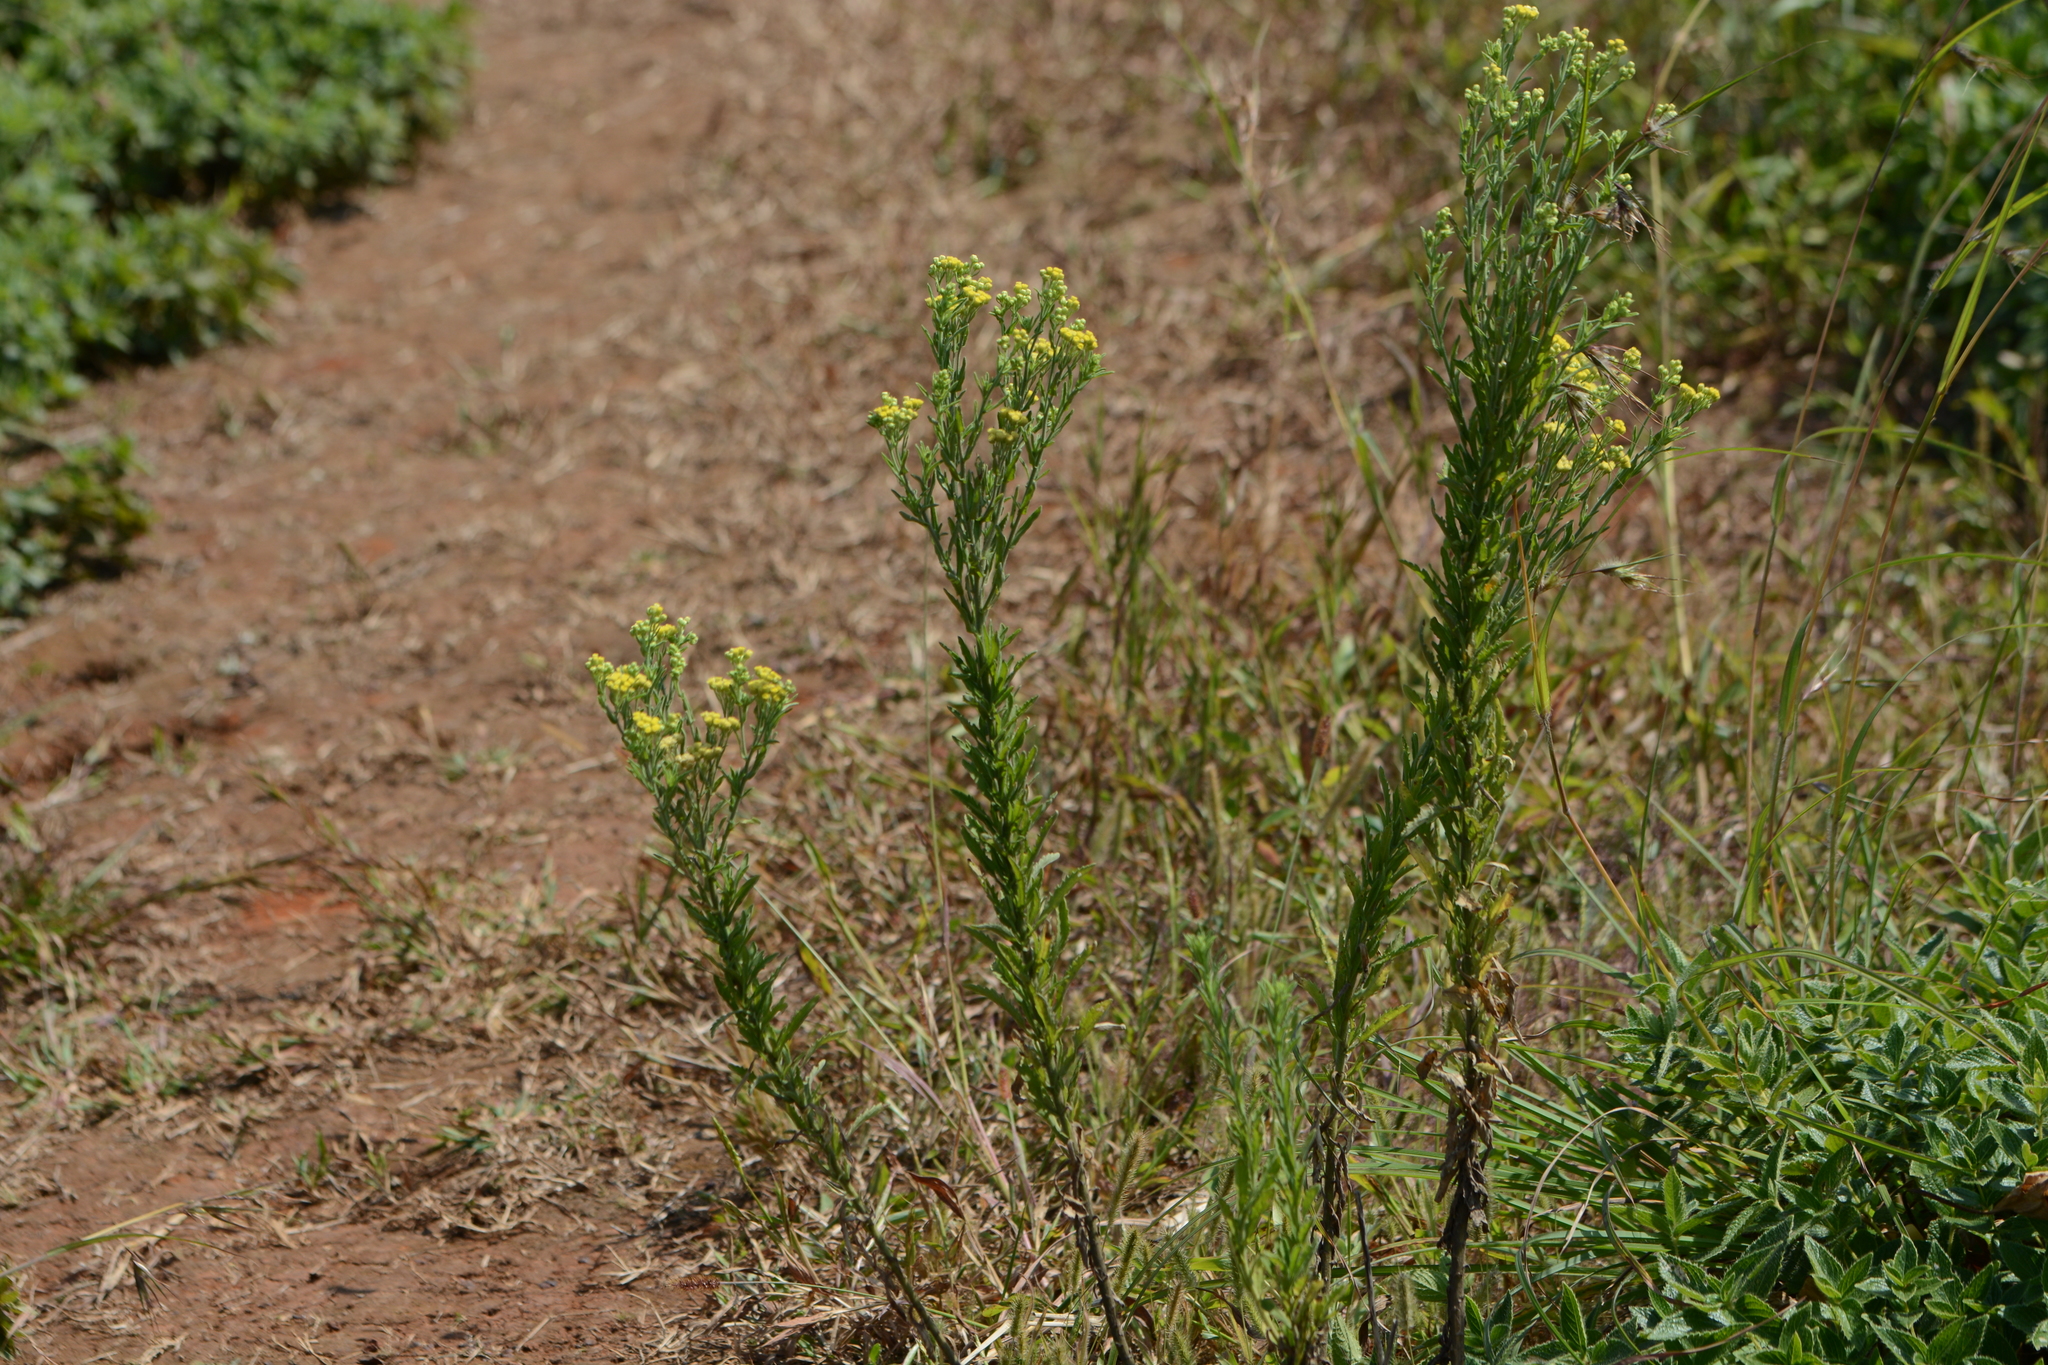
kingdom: Plantae
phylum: Tracheophyta
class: Magnoliopsida
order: Asterales
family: Asteraceae
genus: Nidorella
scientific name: Nidorella triloba
